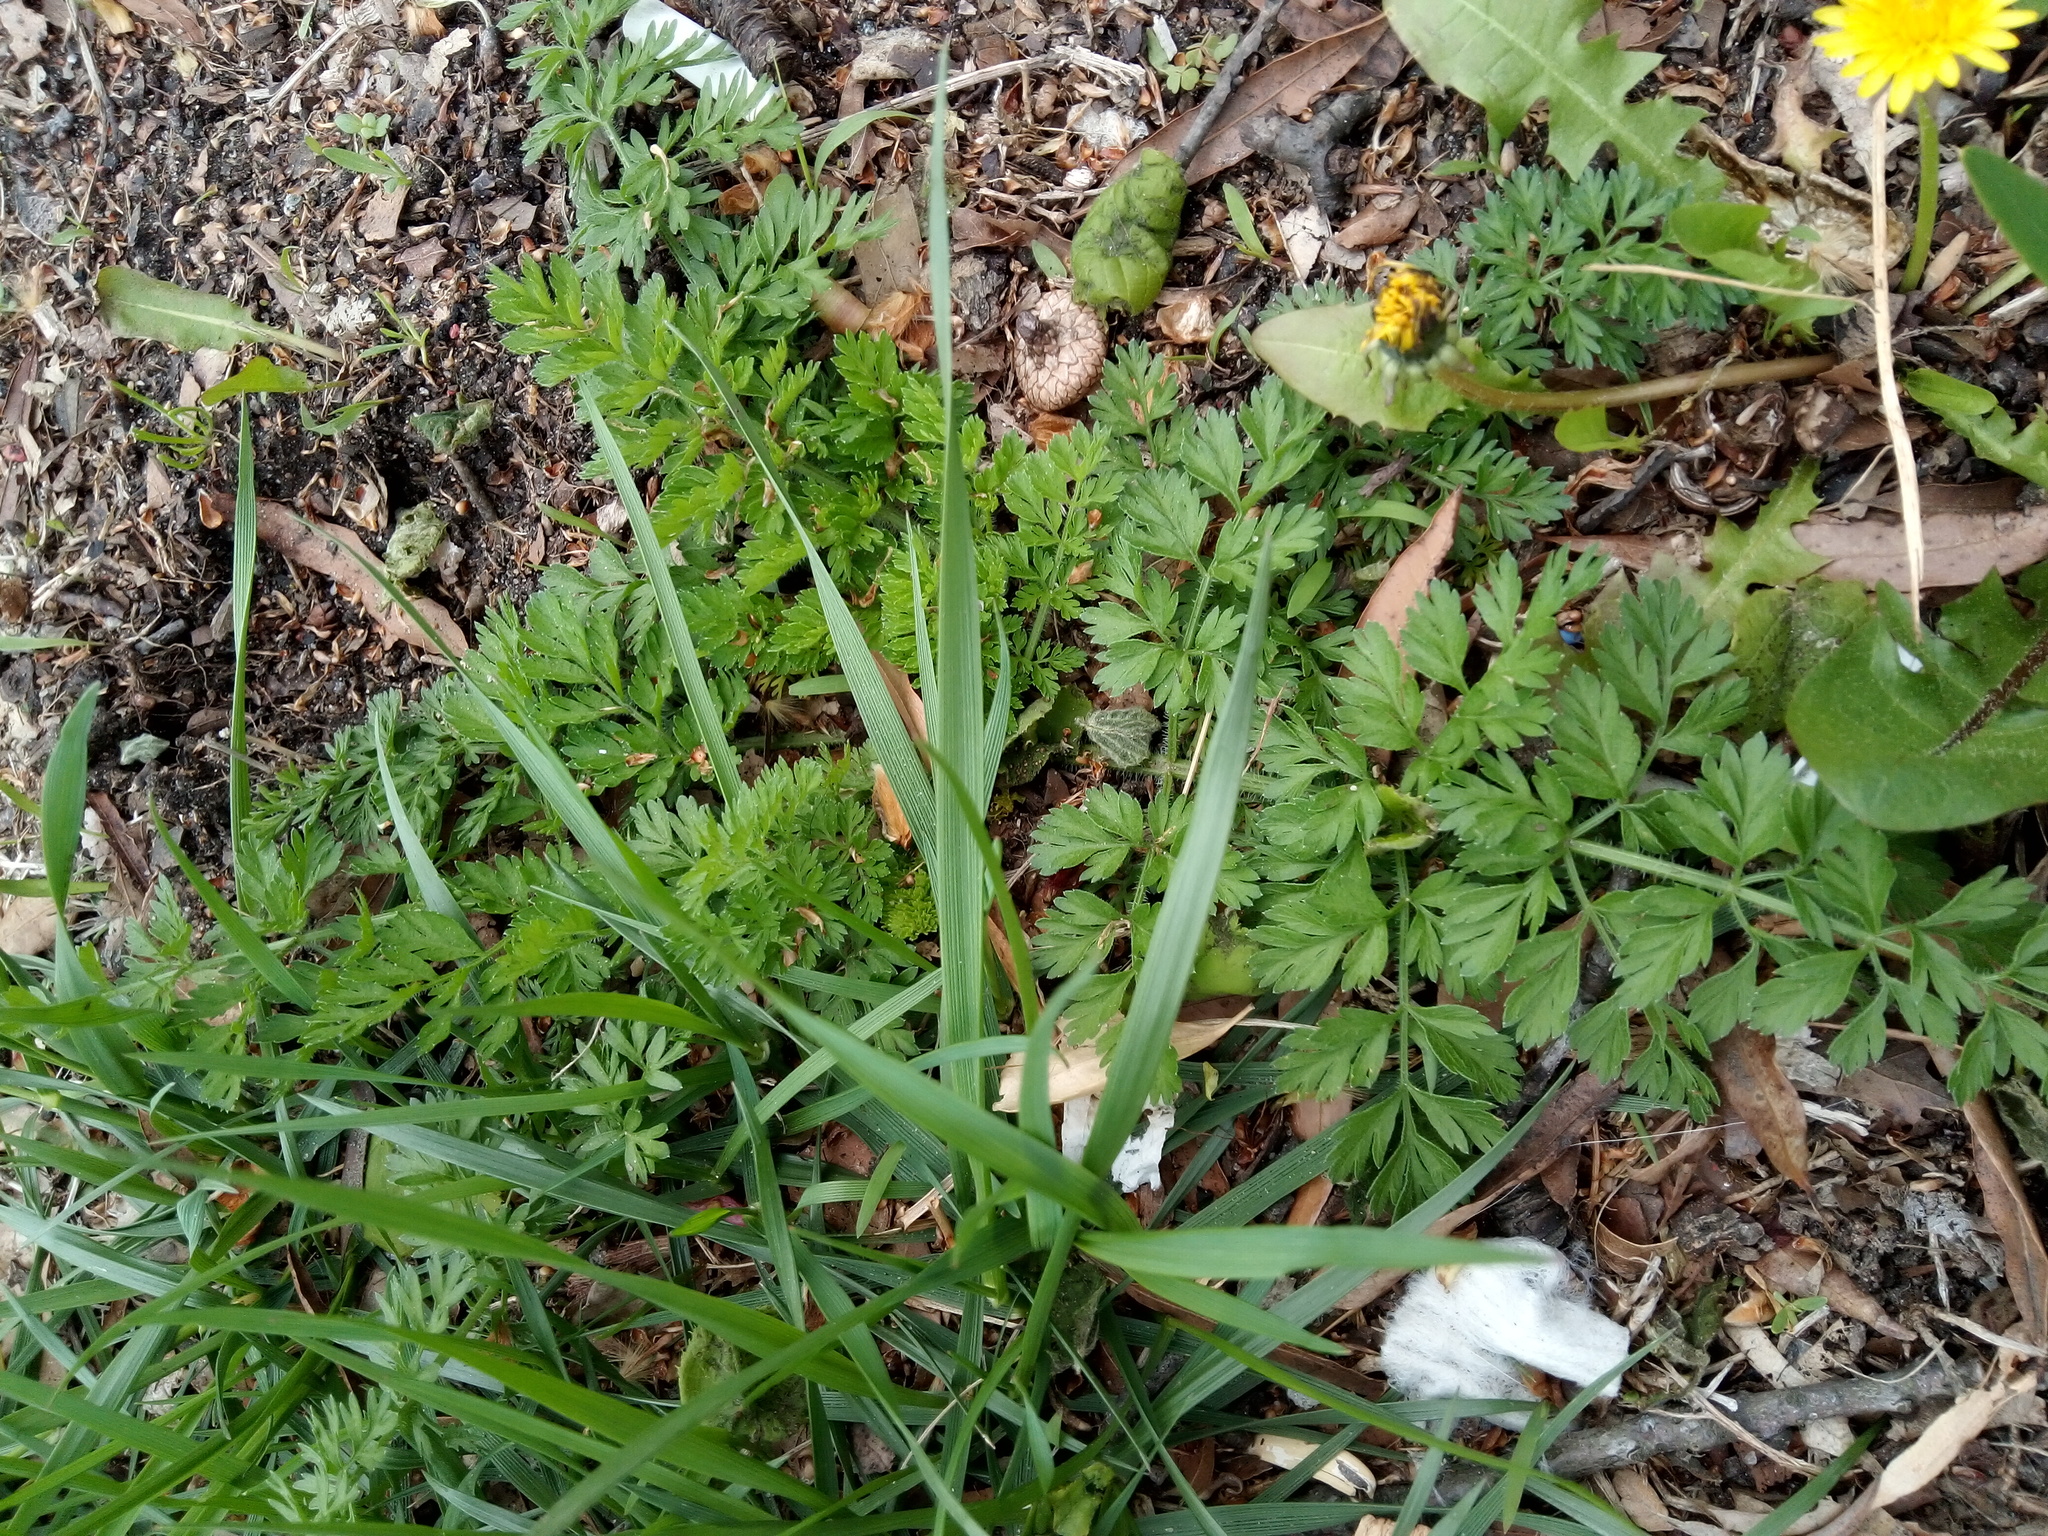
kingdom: Plantae
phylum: Tracheophyta
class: Magnoliopsida
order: Apiales
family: Apiaceae
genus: Daucus
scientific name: Daucus carota
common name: Wild carrot
